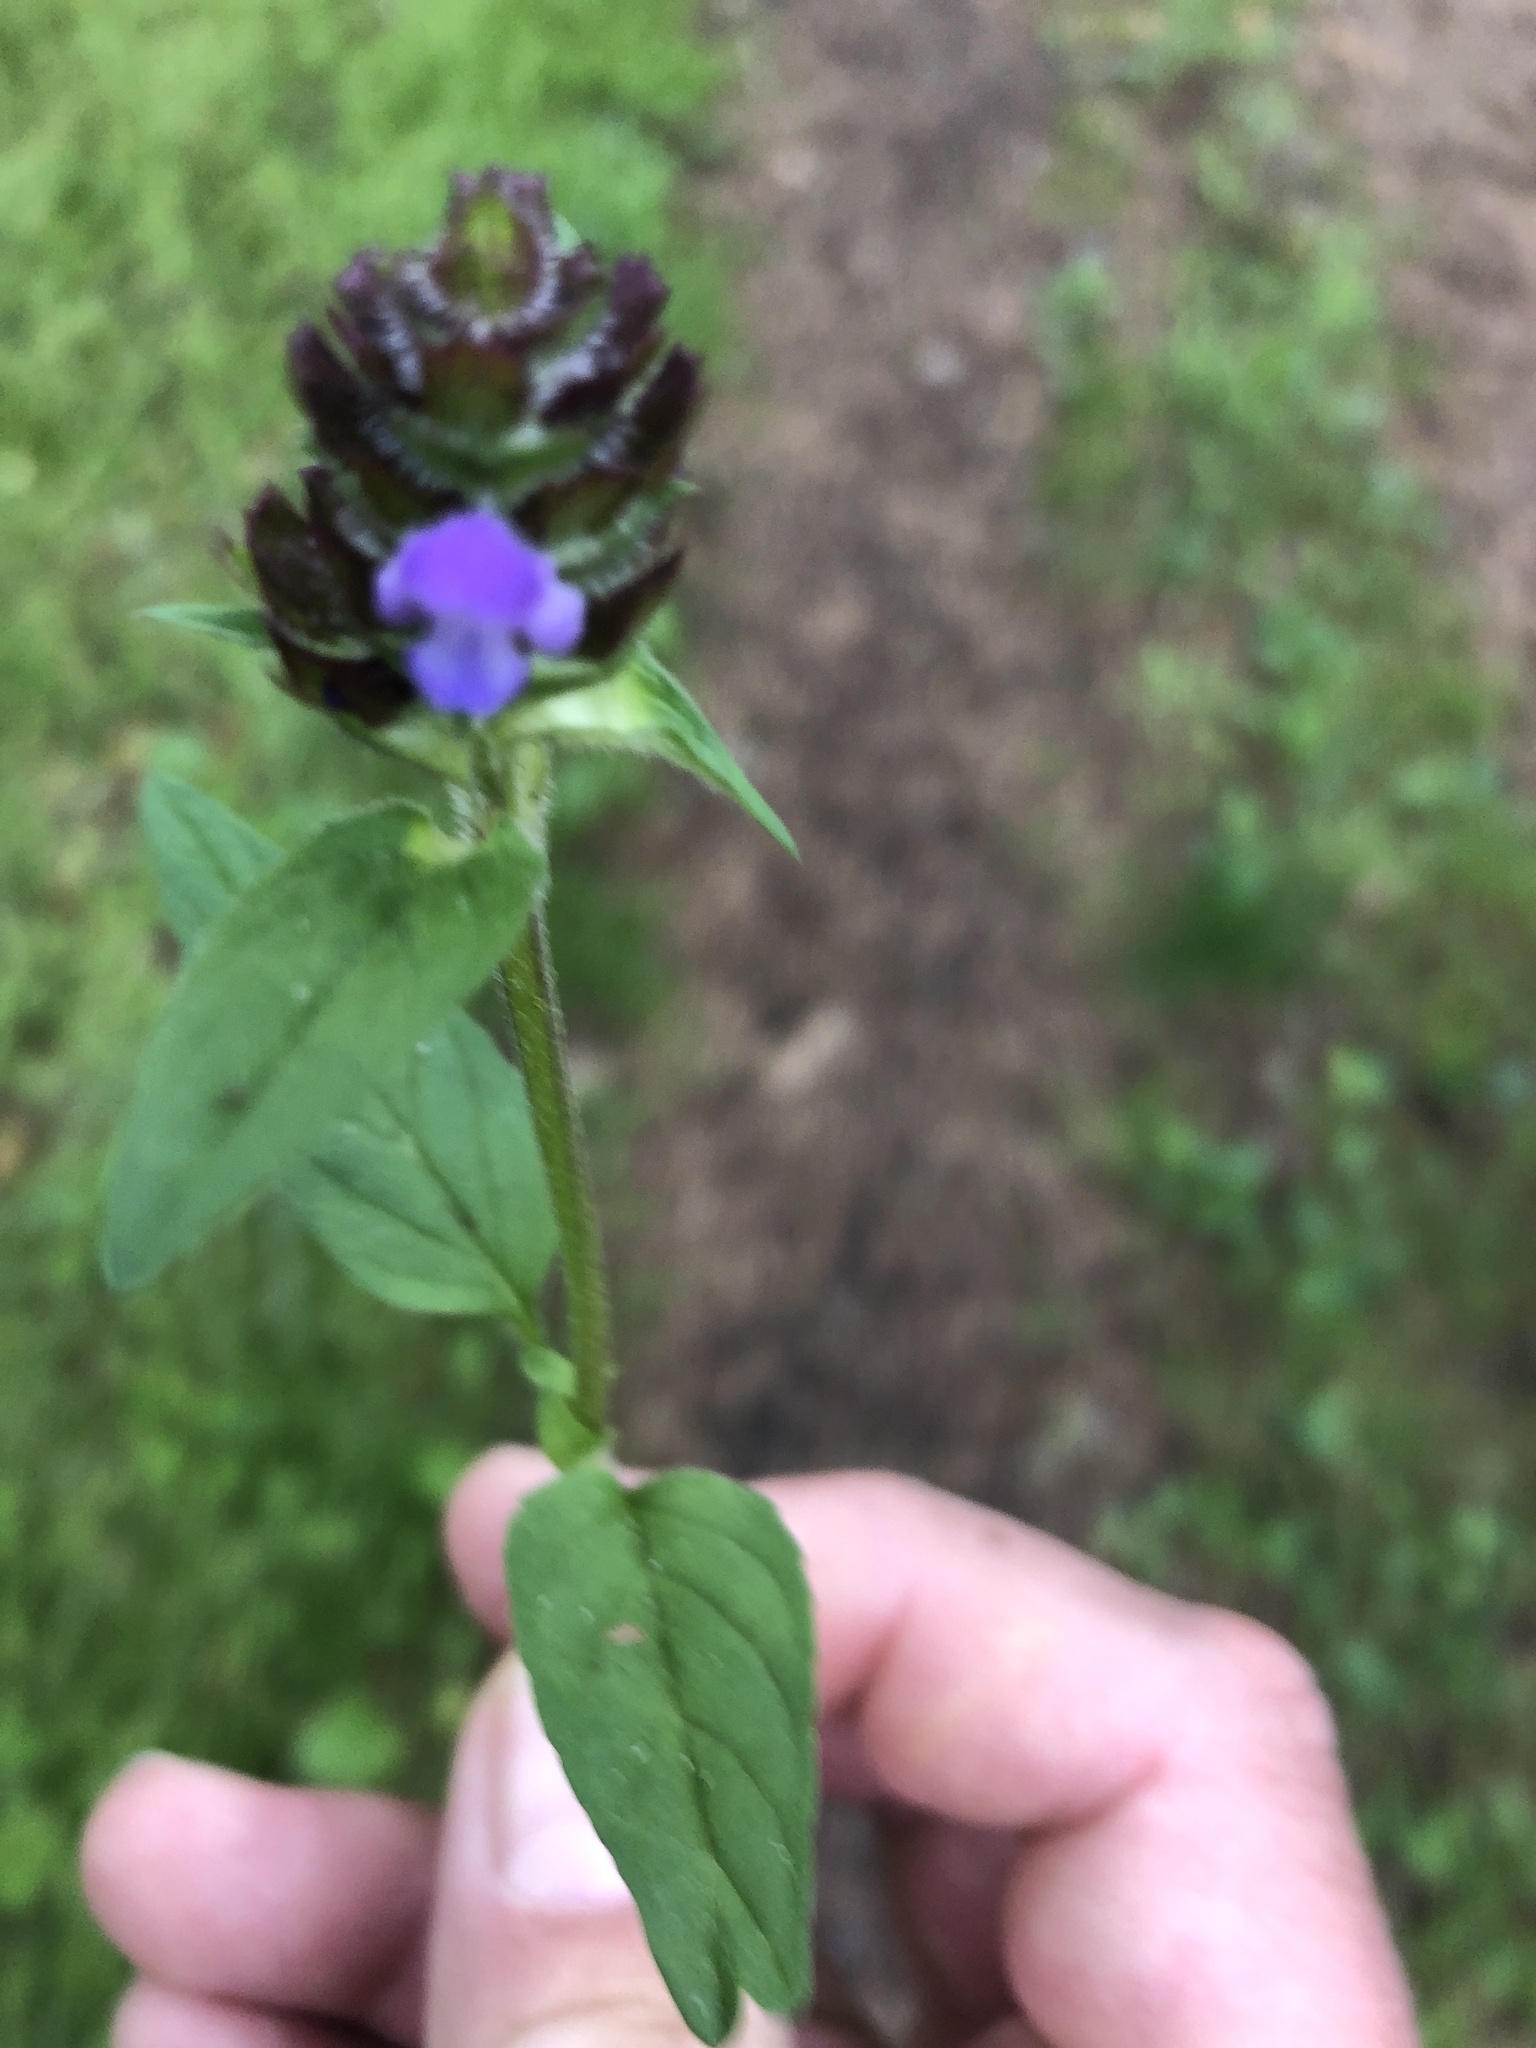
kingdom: Plantae
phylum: Tracheophyta
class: Magnoliopsida
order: Lamiales
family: Lamiaceae
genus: Prunella
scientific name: Prunella vulgaris
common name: Heal-all
